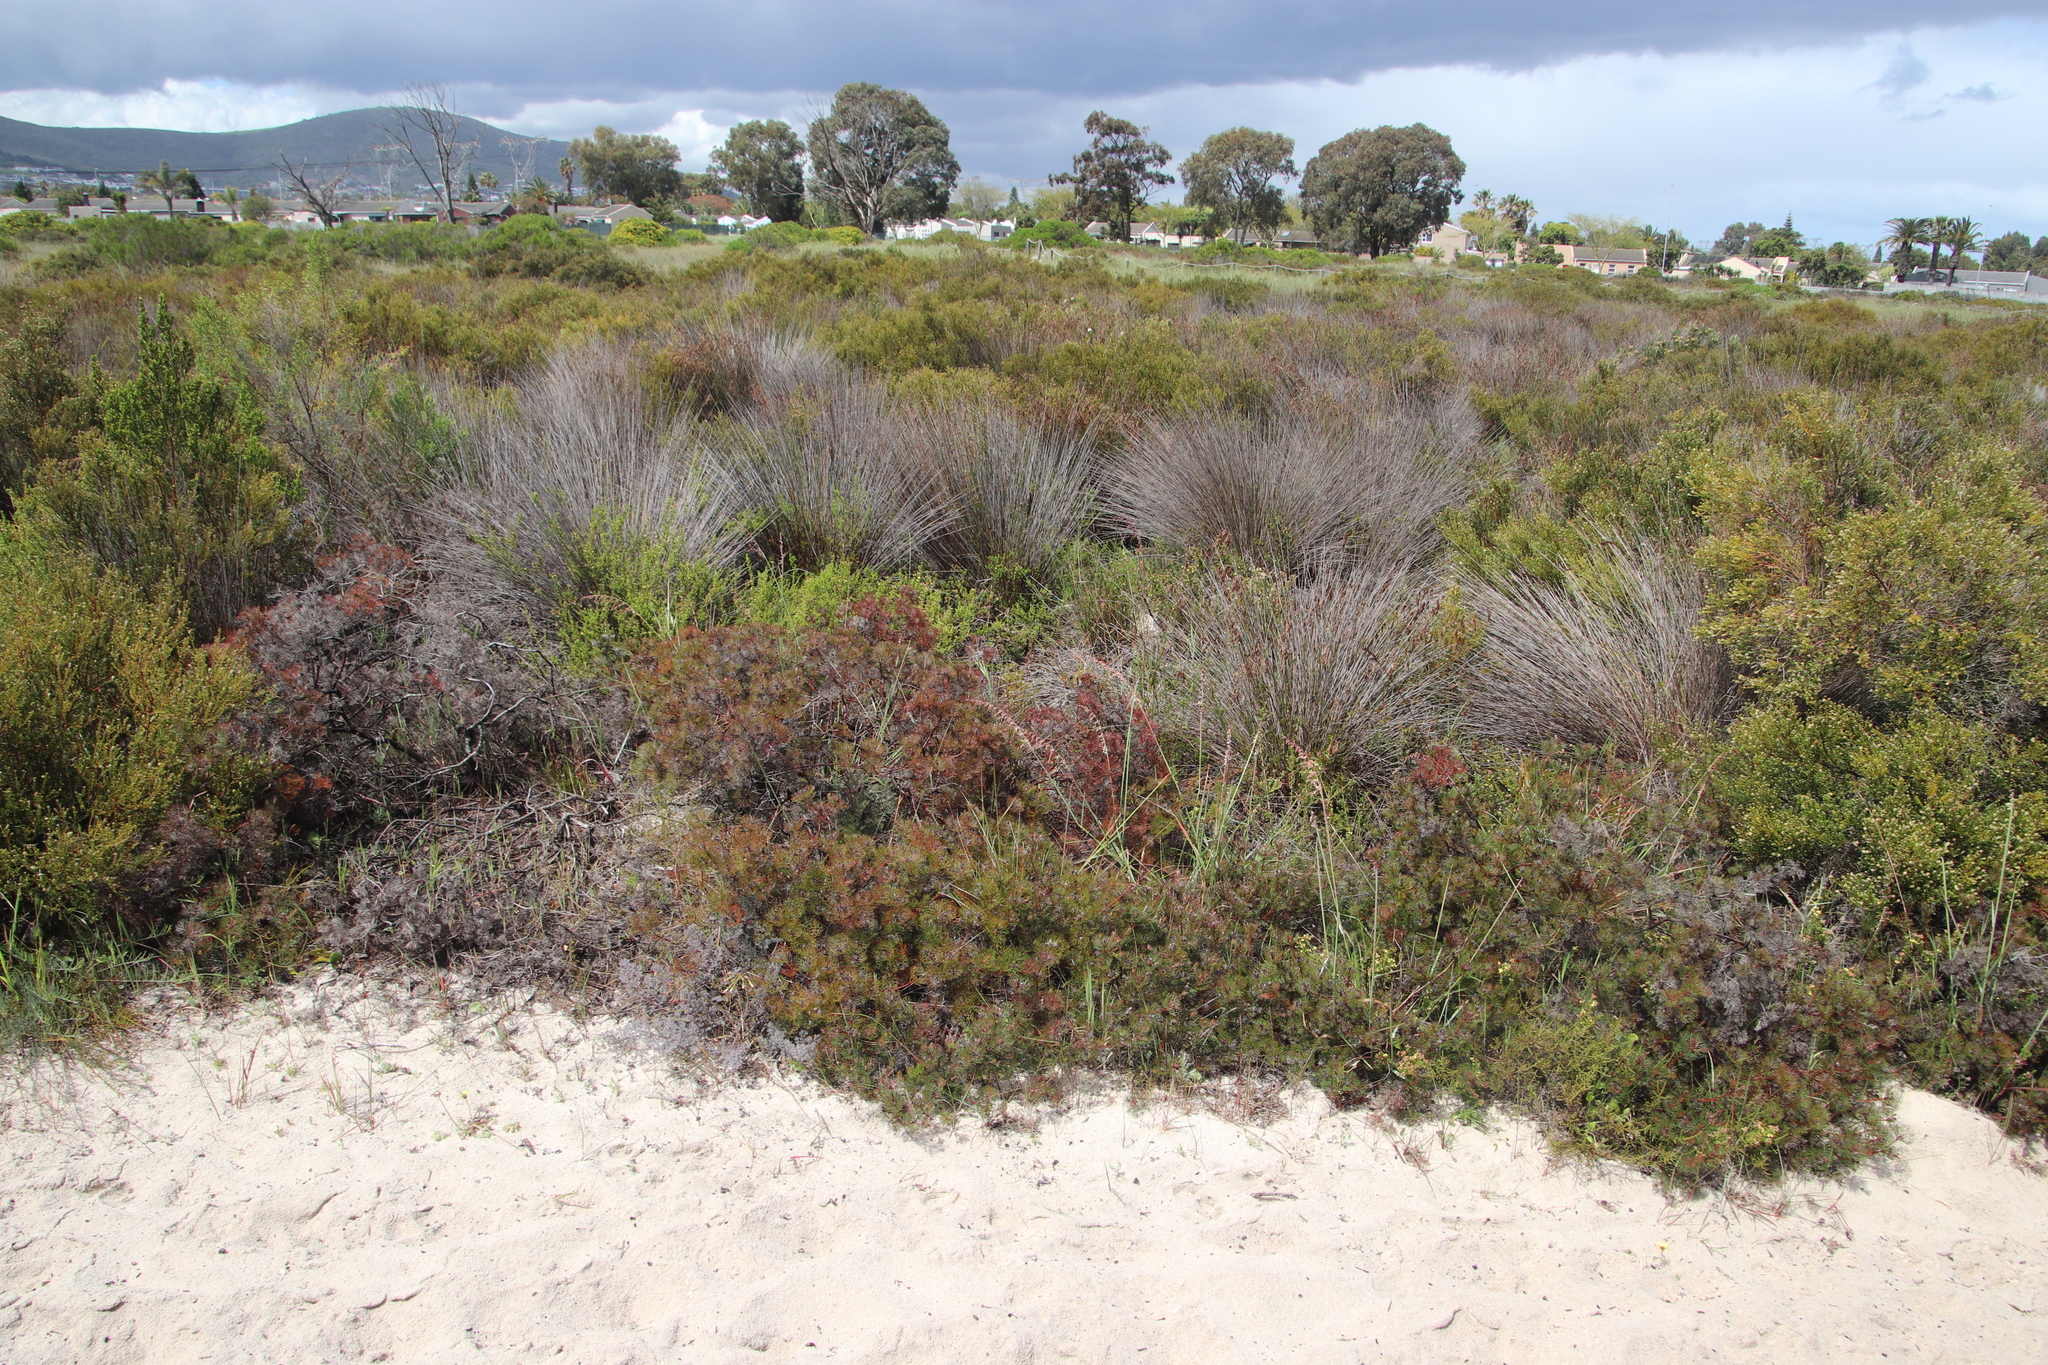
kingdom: Plantae
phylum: Tracheophyta
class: Magnoliopsida
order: Proteales
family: Proteaceae
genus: Serruria
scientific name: Serruria fasciflora
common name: Common pin spiderhead
